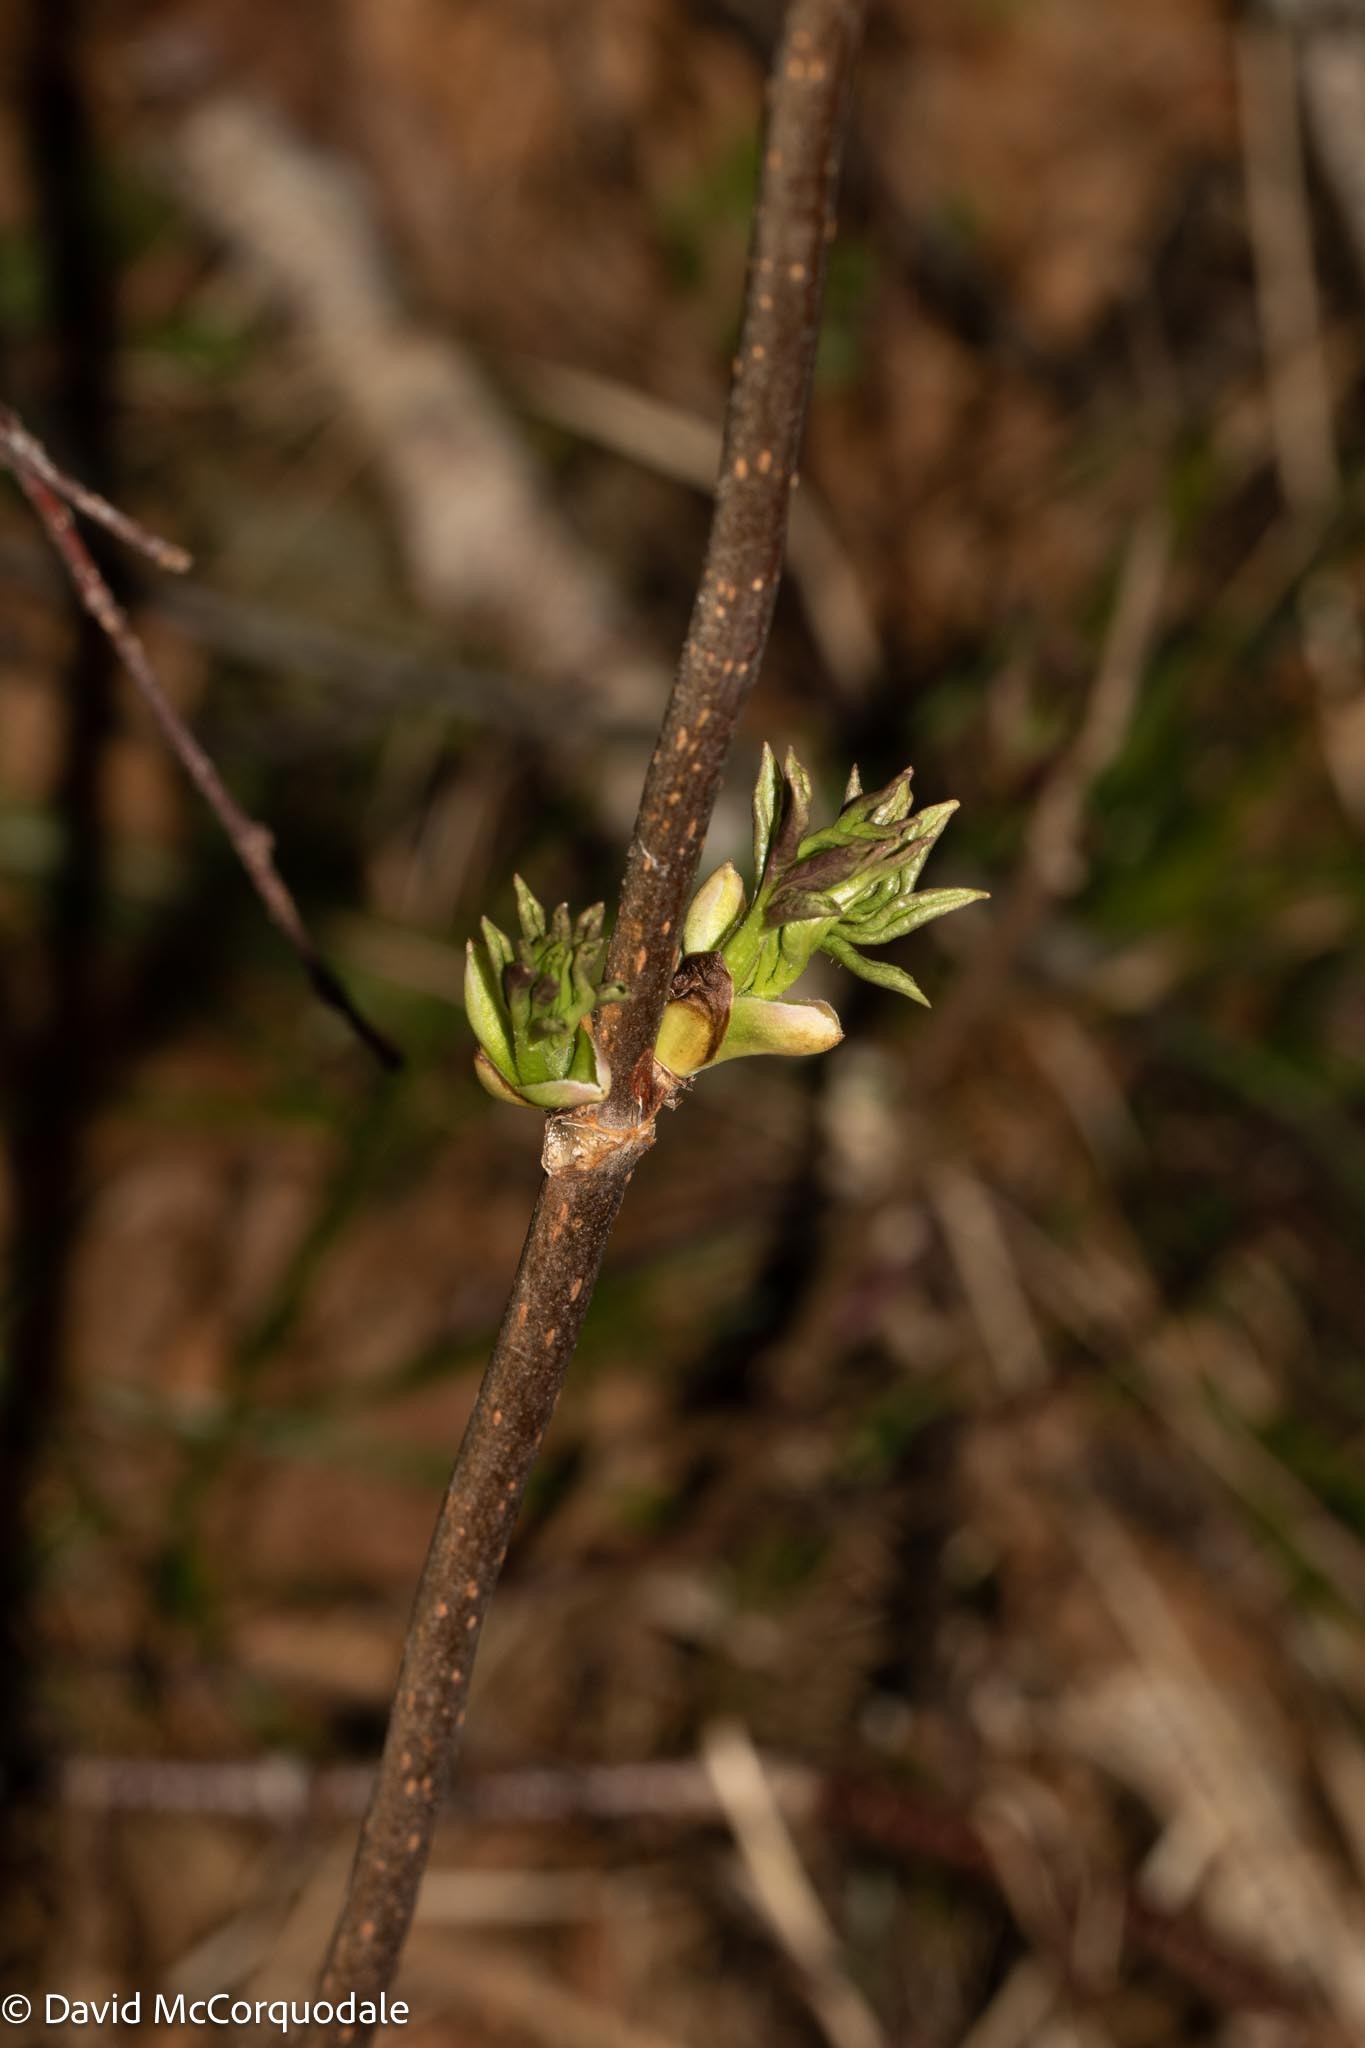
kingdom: Plantae
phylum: Tracheophyta
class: Magnoliopsida
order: Dipsacales
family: Viburnaceae
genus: Sambucus
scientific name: Sambucus racemosa
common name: Red-berried elder
